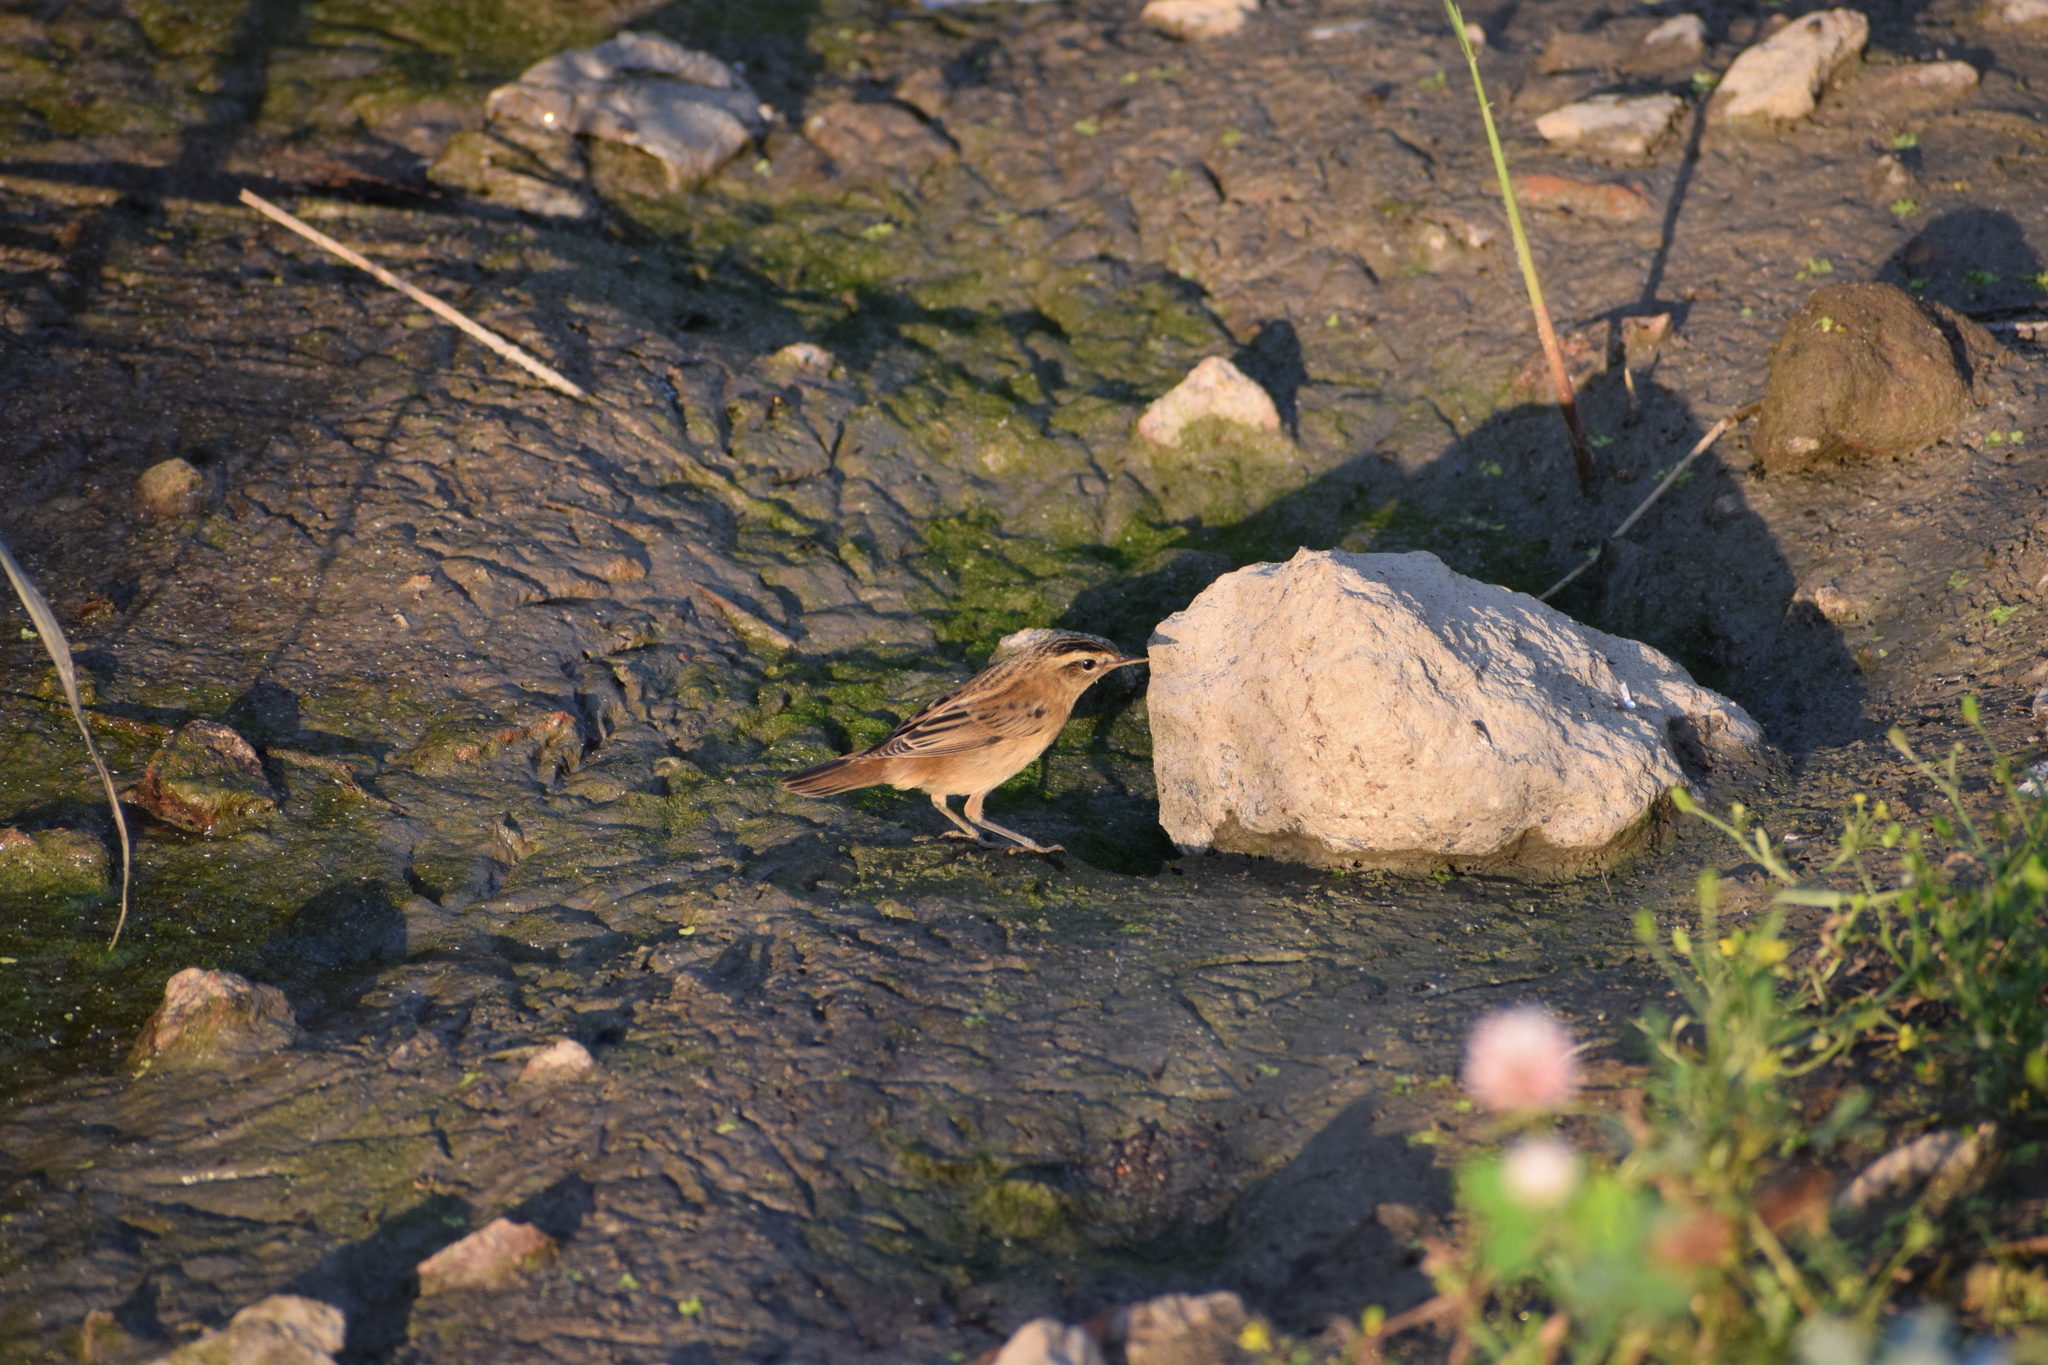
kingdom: Animalia
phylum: Chordata
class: Aves
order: Passeriformes
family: Acrocephalidae
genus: Acrocephalus
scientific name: Acrocephalus schoenobaenus
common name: Sedge warbler
